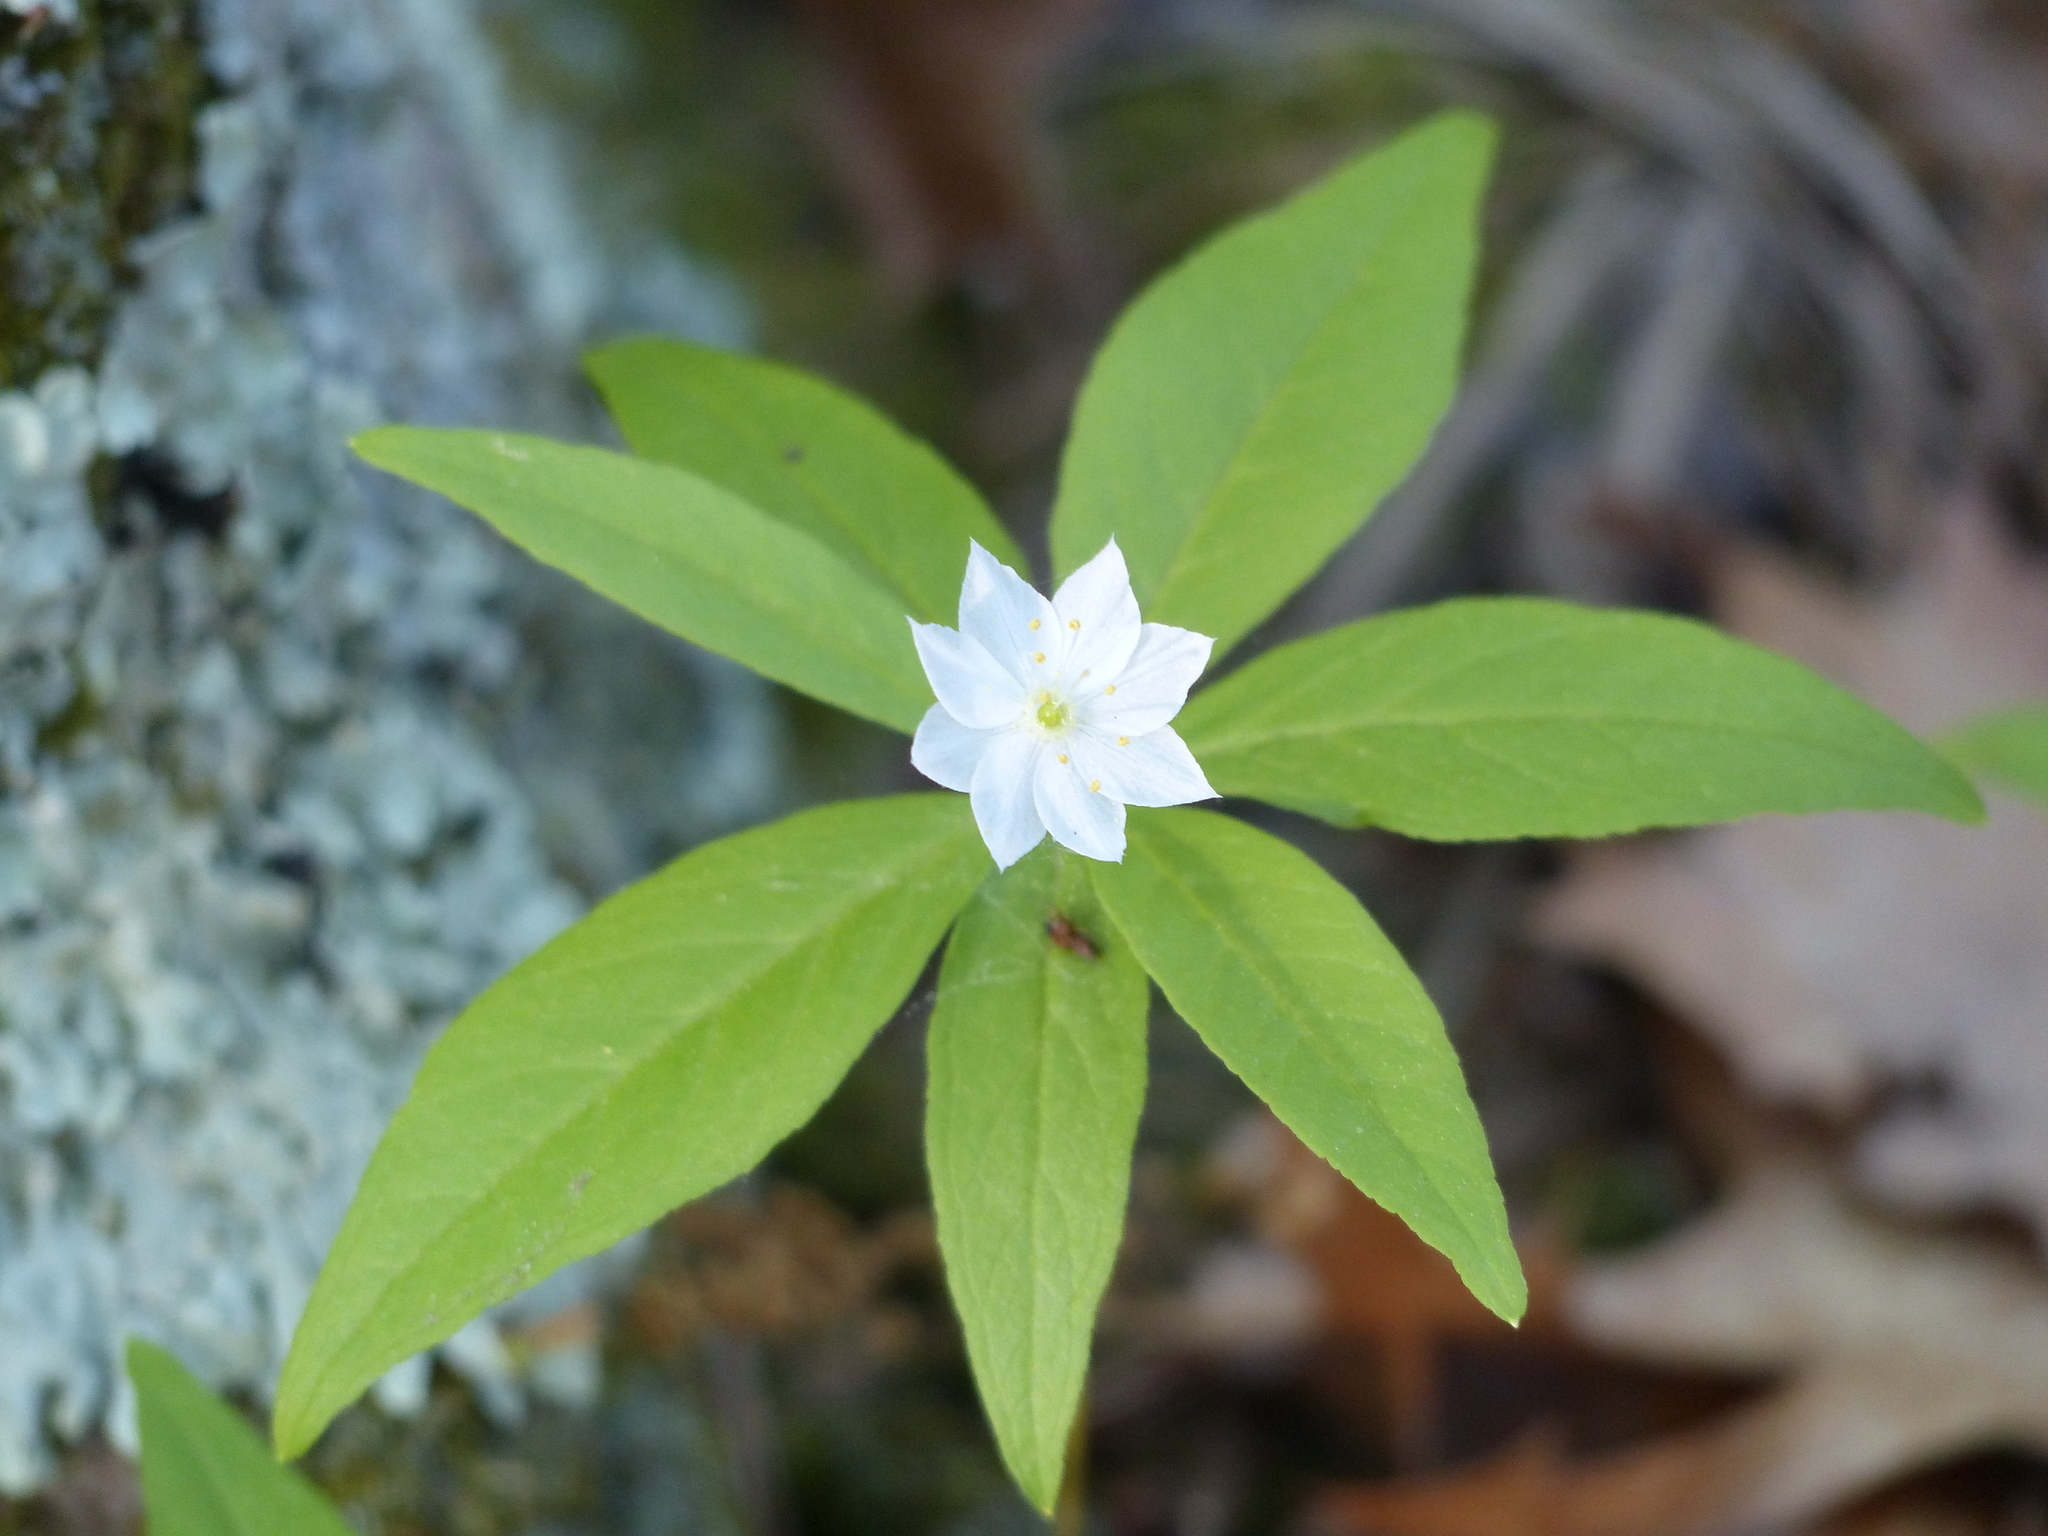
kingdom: Plantae
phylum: Tracheophyta
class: Magnoliopsida
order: Ericales
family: Primulaceae
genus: Lysimachia
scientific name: Lysimachia borealis
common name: American starflower
